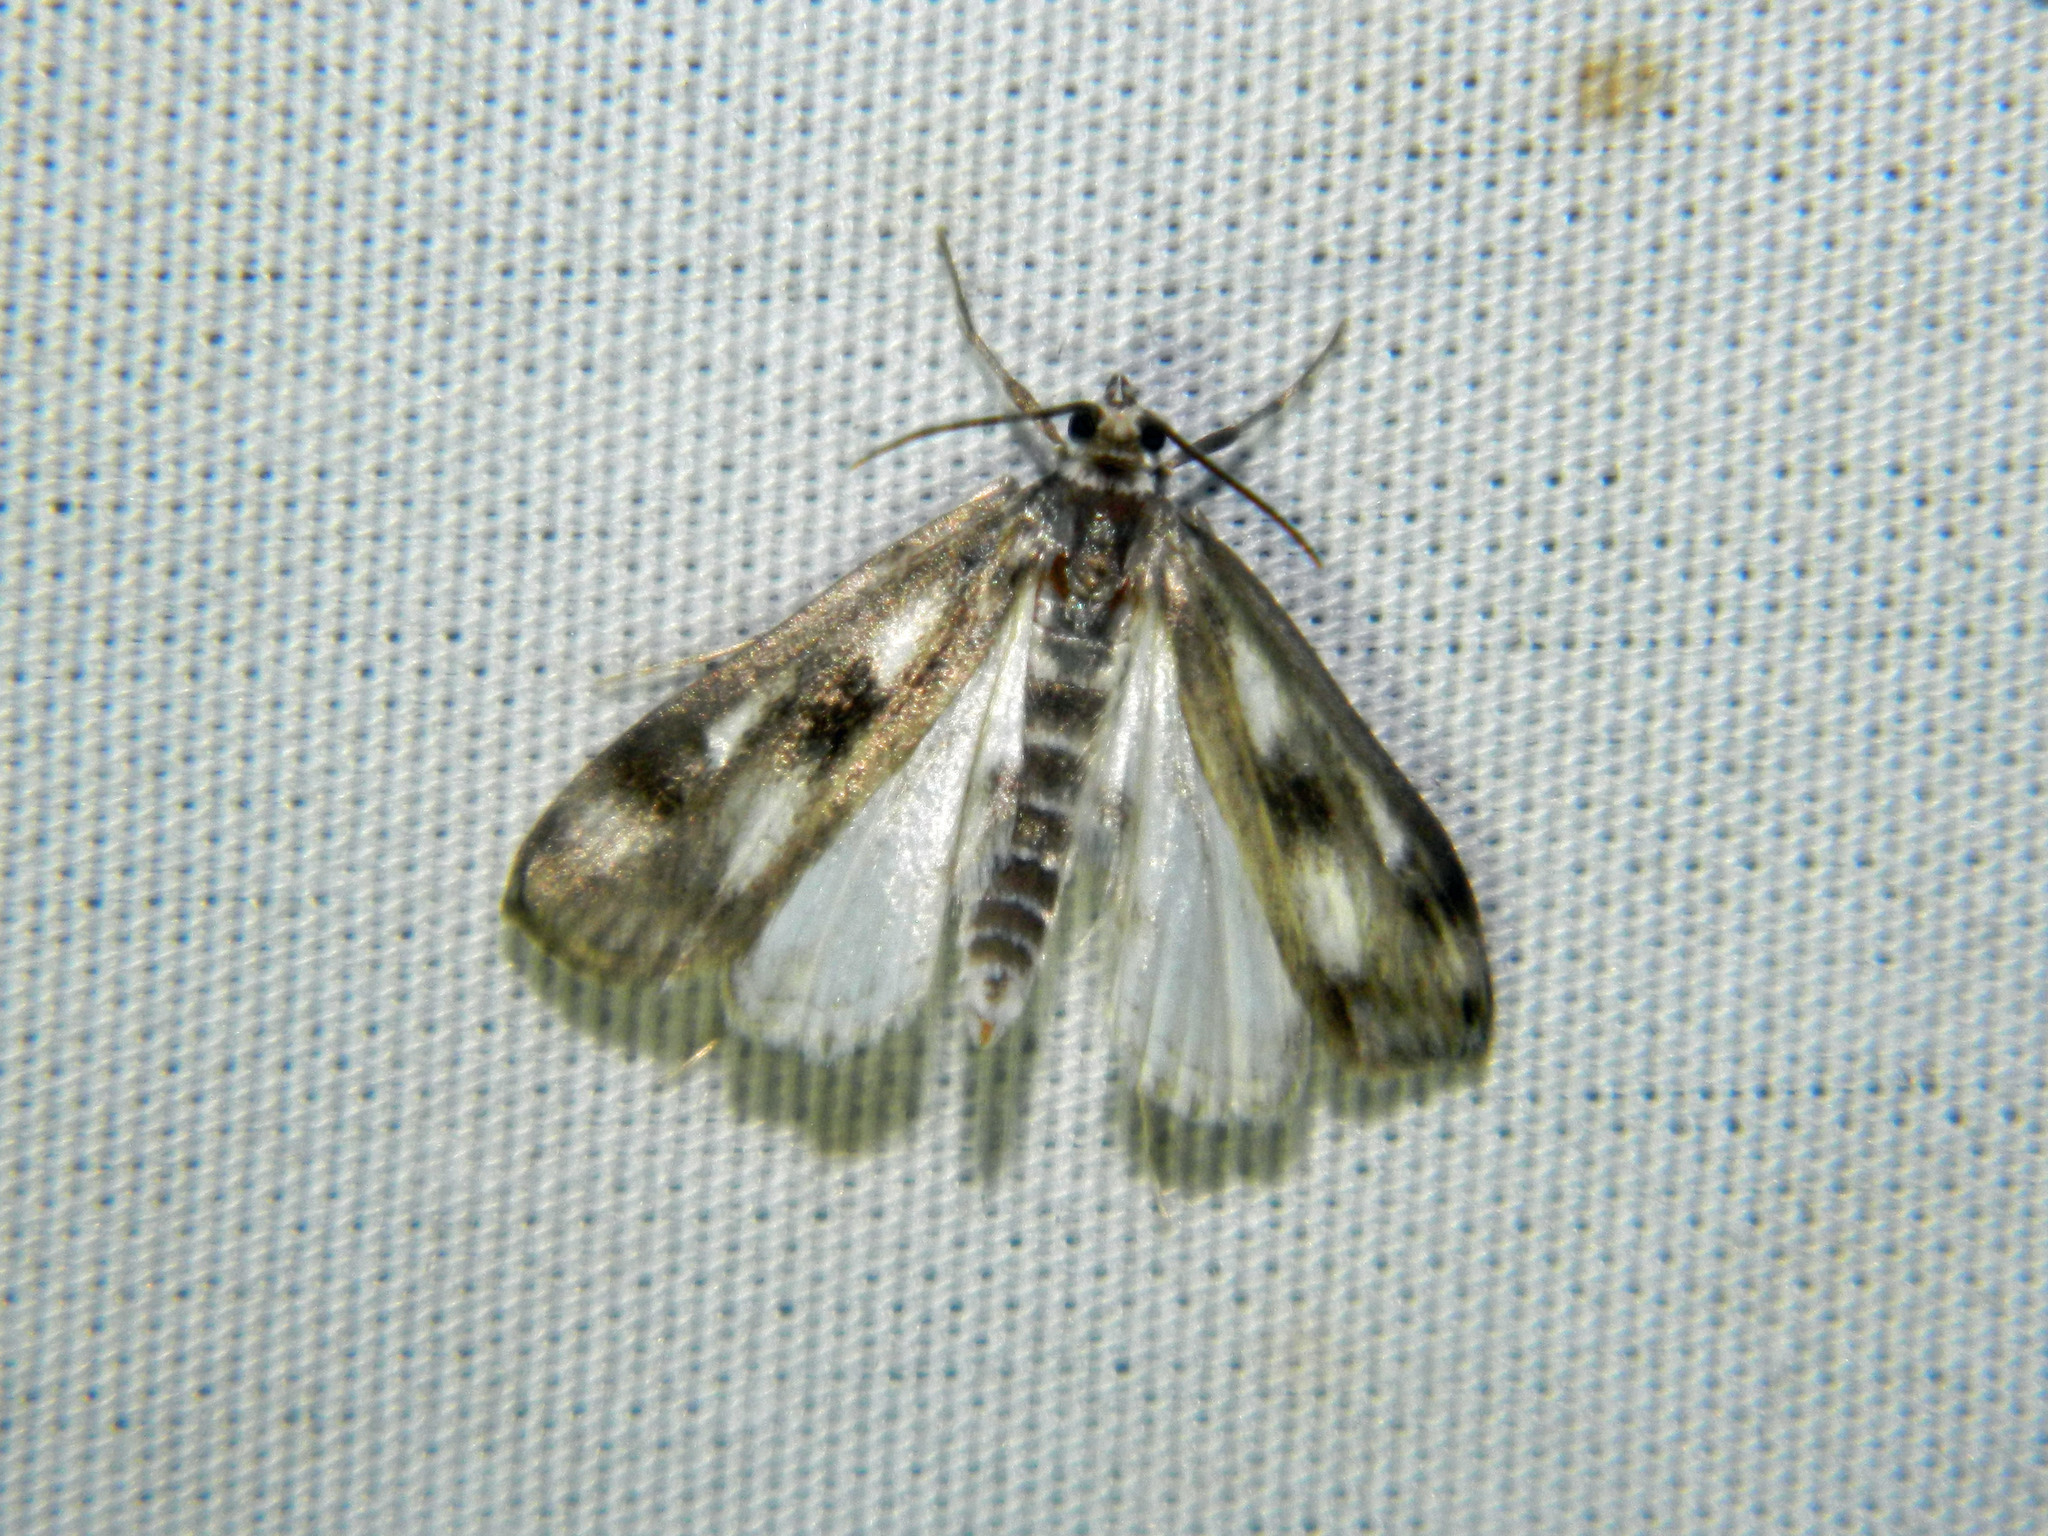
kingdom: Animalia
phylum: Arthropoda
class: Insecta
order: Lepidoptera
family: Crambidae
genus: Parapoynx
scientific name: Parapoynx maculalis
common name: Polymorphic pondweed moth
